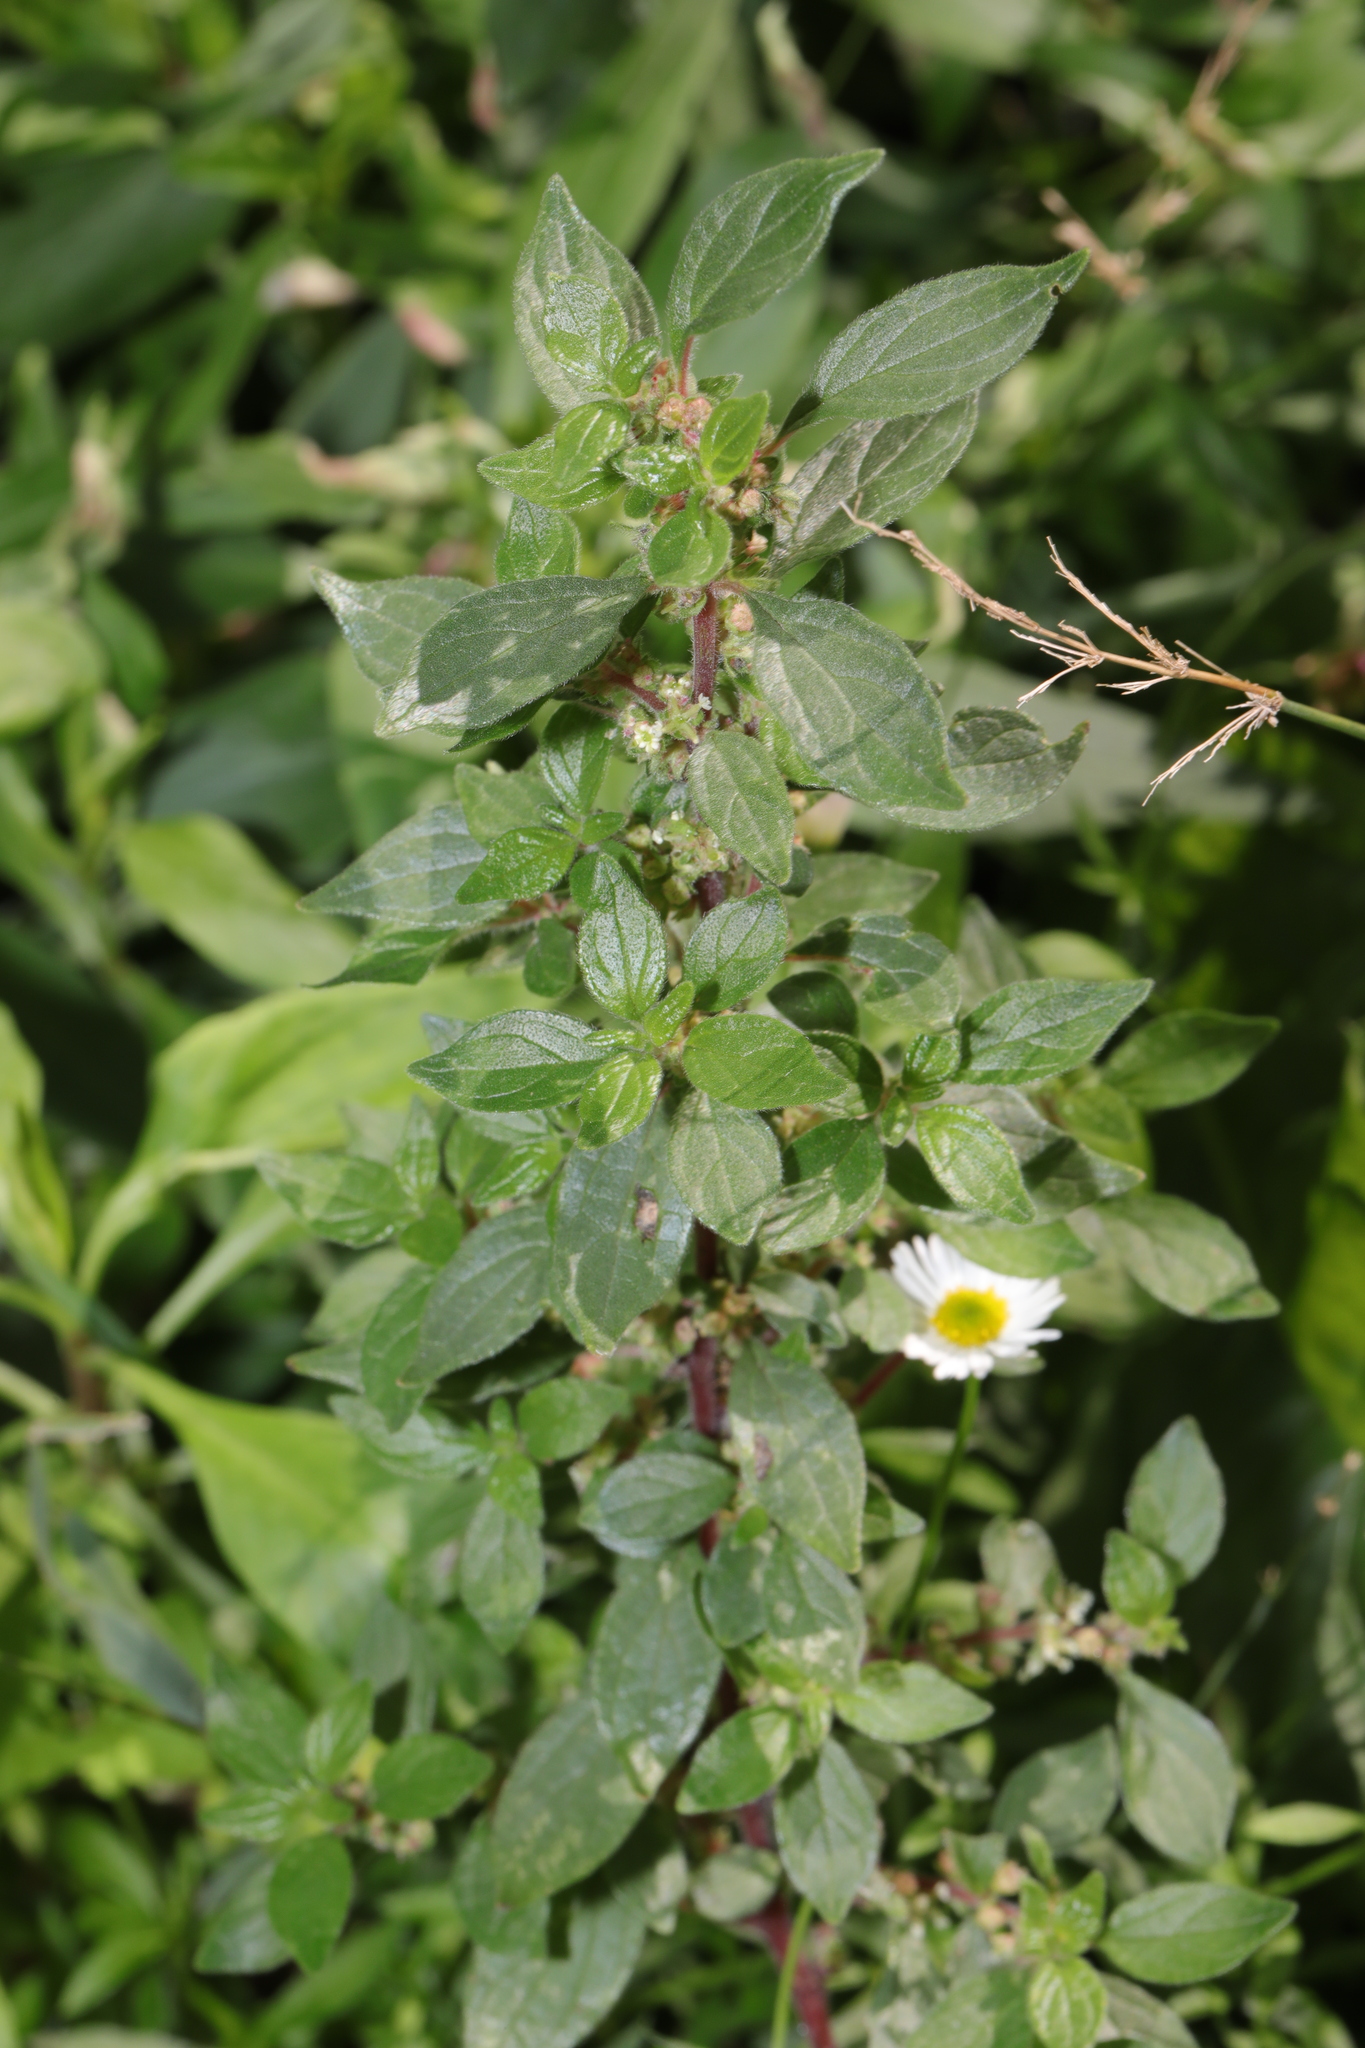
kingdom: Plantae
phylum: Tracheophyta
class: Magnoliopsida
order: Rosales
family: Urticaceae
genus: Parietaria
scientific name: Parietaria judaica
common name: Pellitory-of-the-wall
